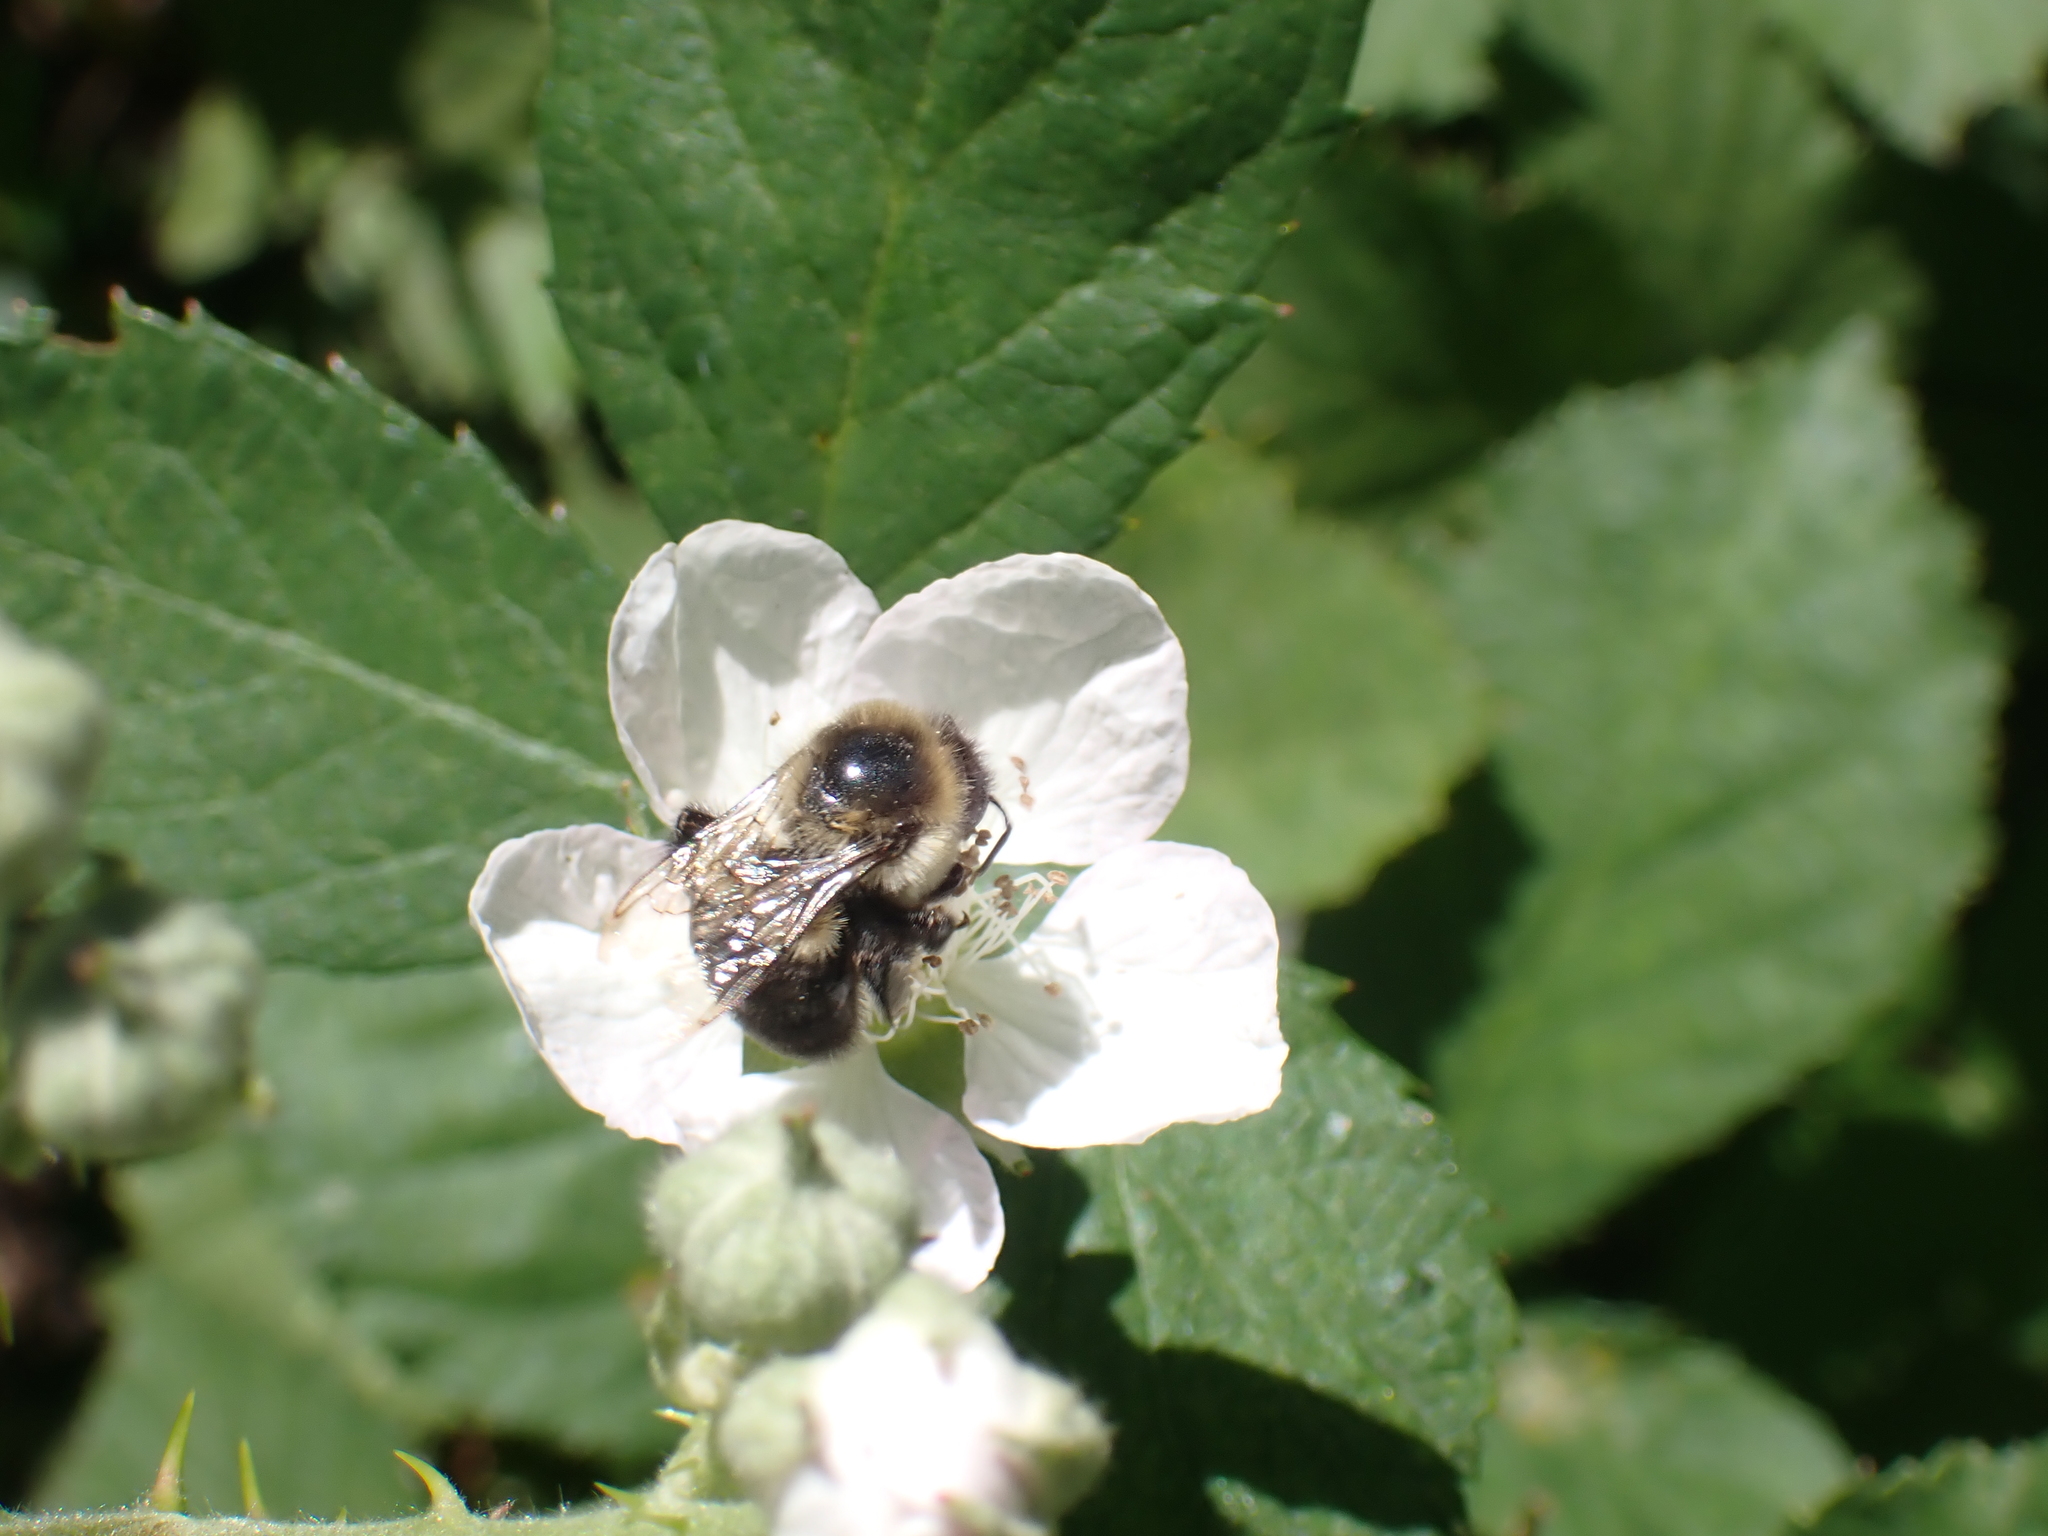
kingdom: Animalia
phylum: Arthropoda
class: Insecta
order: Hymenoptera
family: Apidae
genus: Bombus
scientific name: Bombus impatiens
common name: Common eastern bumble bee
